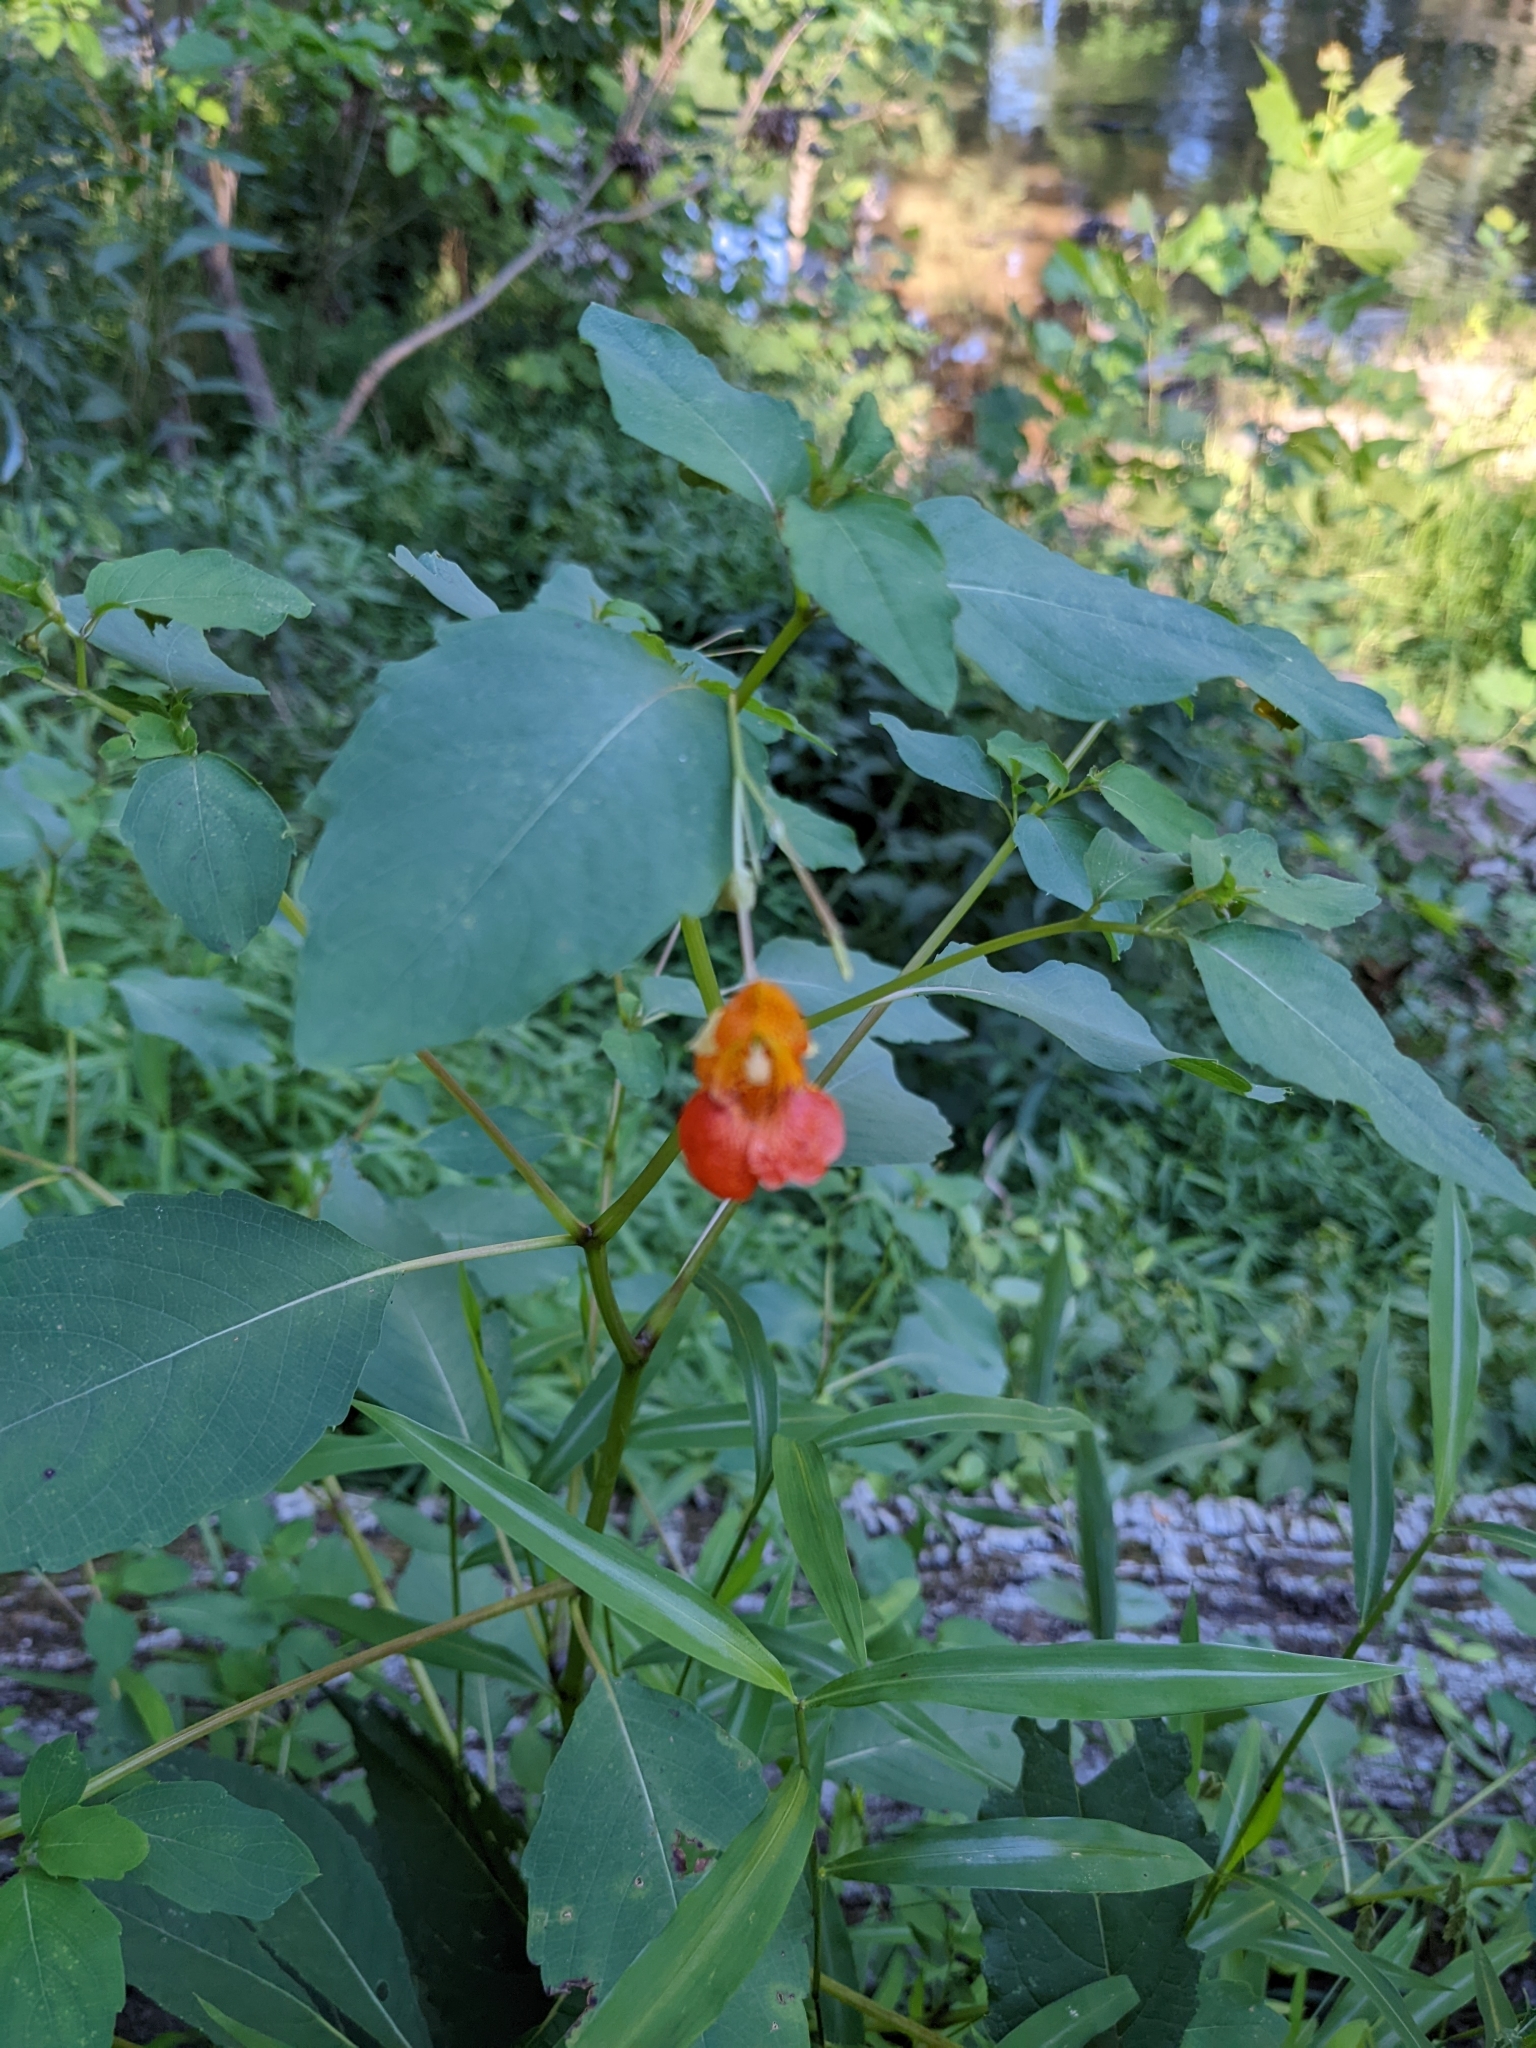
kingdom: Plantae
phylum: Tracheophyta
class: Magnoliopsida
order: Ericales
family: Balsaminaceae
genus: Impatiens
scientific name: Impatiens capensis
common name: Orange balsam
